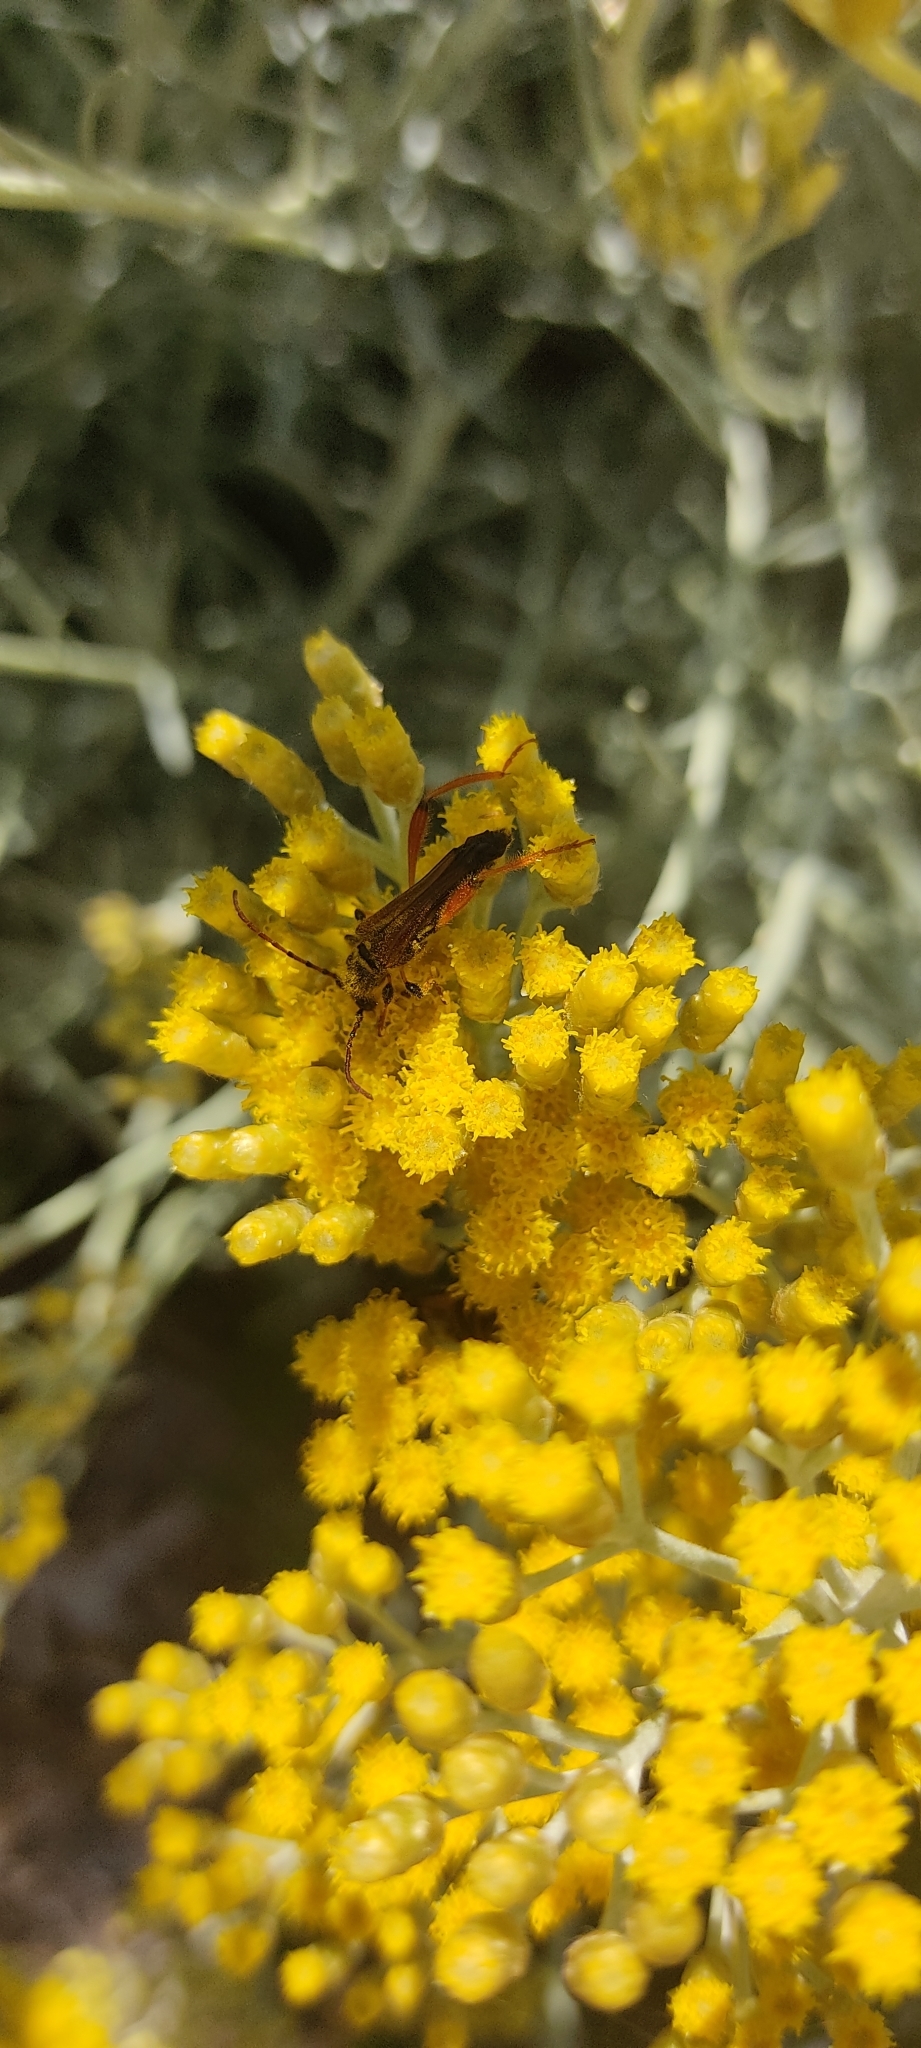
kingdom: Animalia
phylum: Arthropoda
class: Insecta
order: Coleoptera
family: Cerambycidae
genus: Stenopterus
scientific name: Stenopterus rufus
